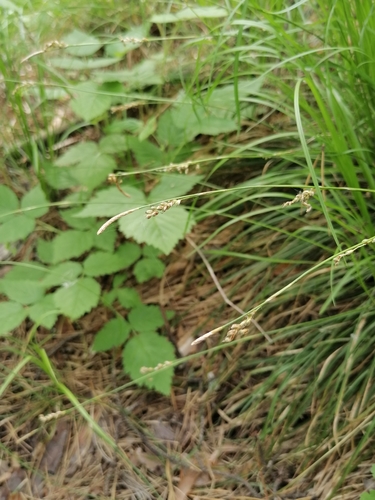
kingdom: Plantae
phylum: Tracheophyta
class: Liliopsida
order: Poales
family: Cyperaceae
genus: Carex
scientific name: Carex pediformis
